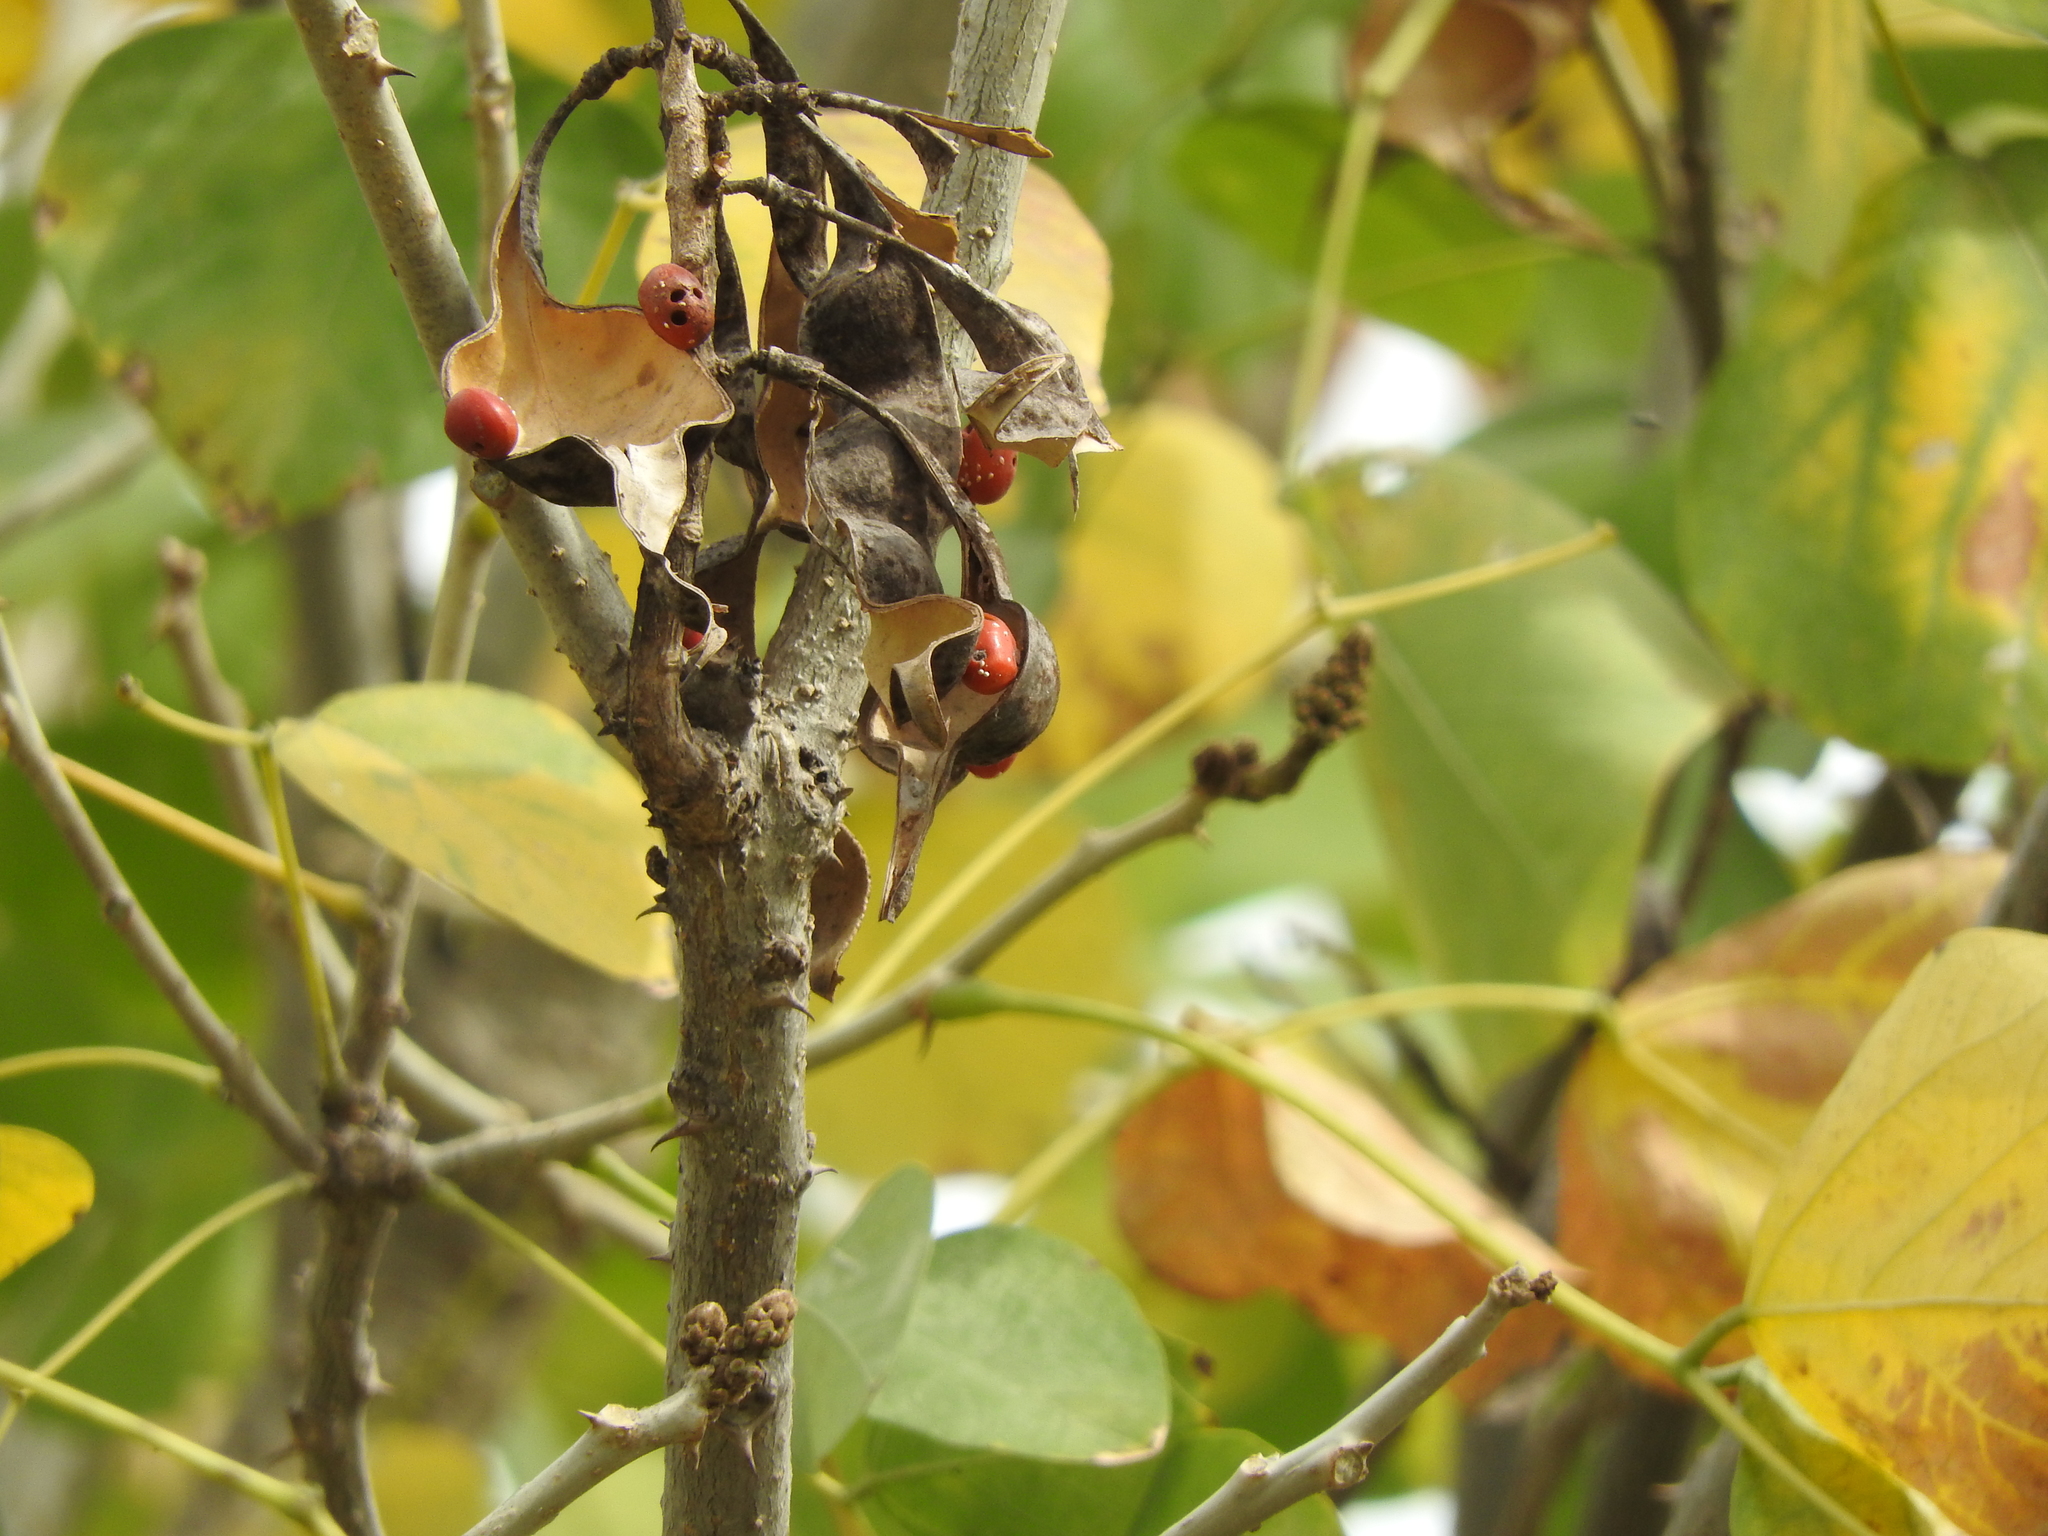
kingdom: Plantae
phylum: Tracheophyta
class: Magnoliopsida
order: Fabales
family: Fabaceae
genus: Erythrina
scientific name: Erythrina americana
